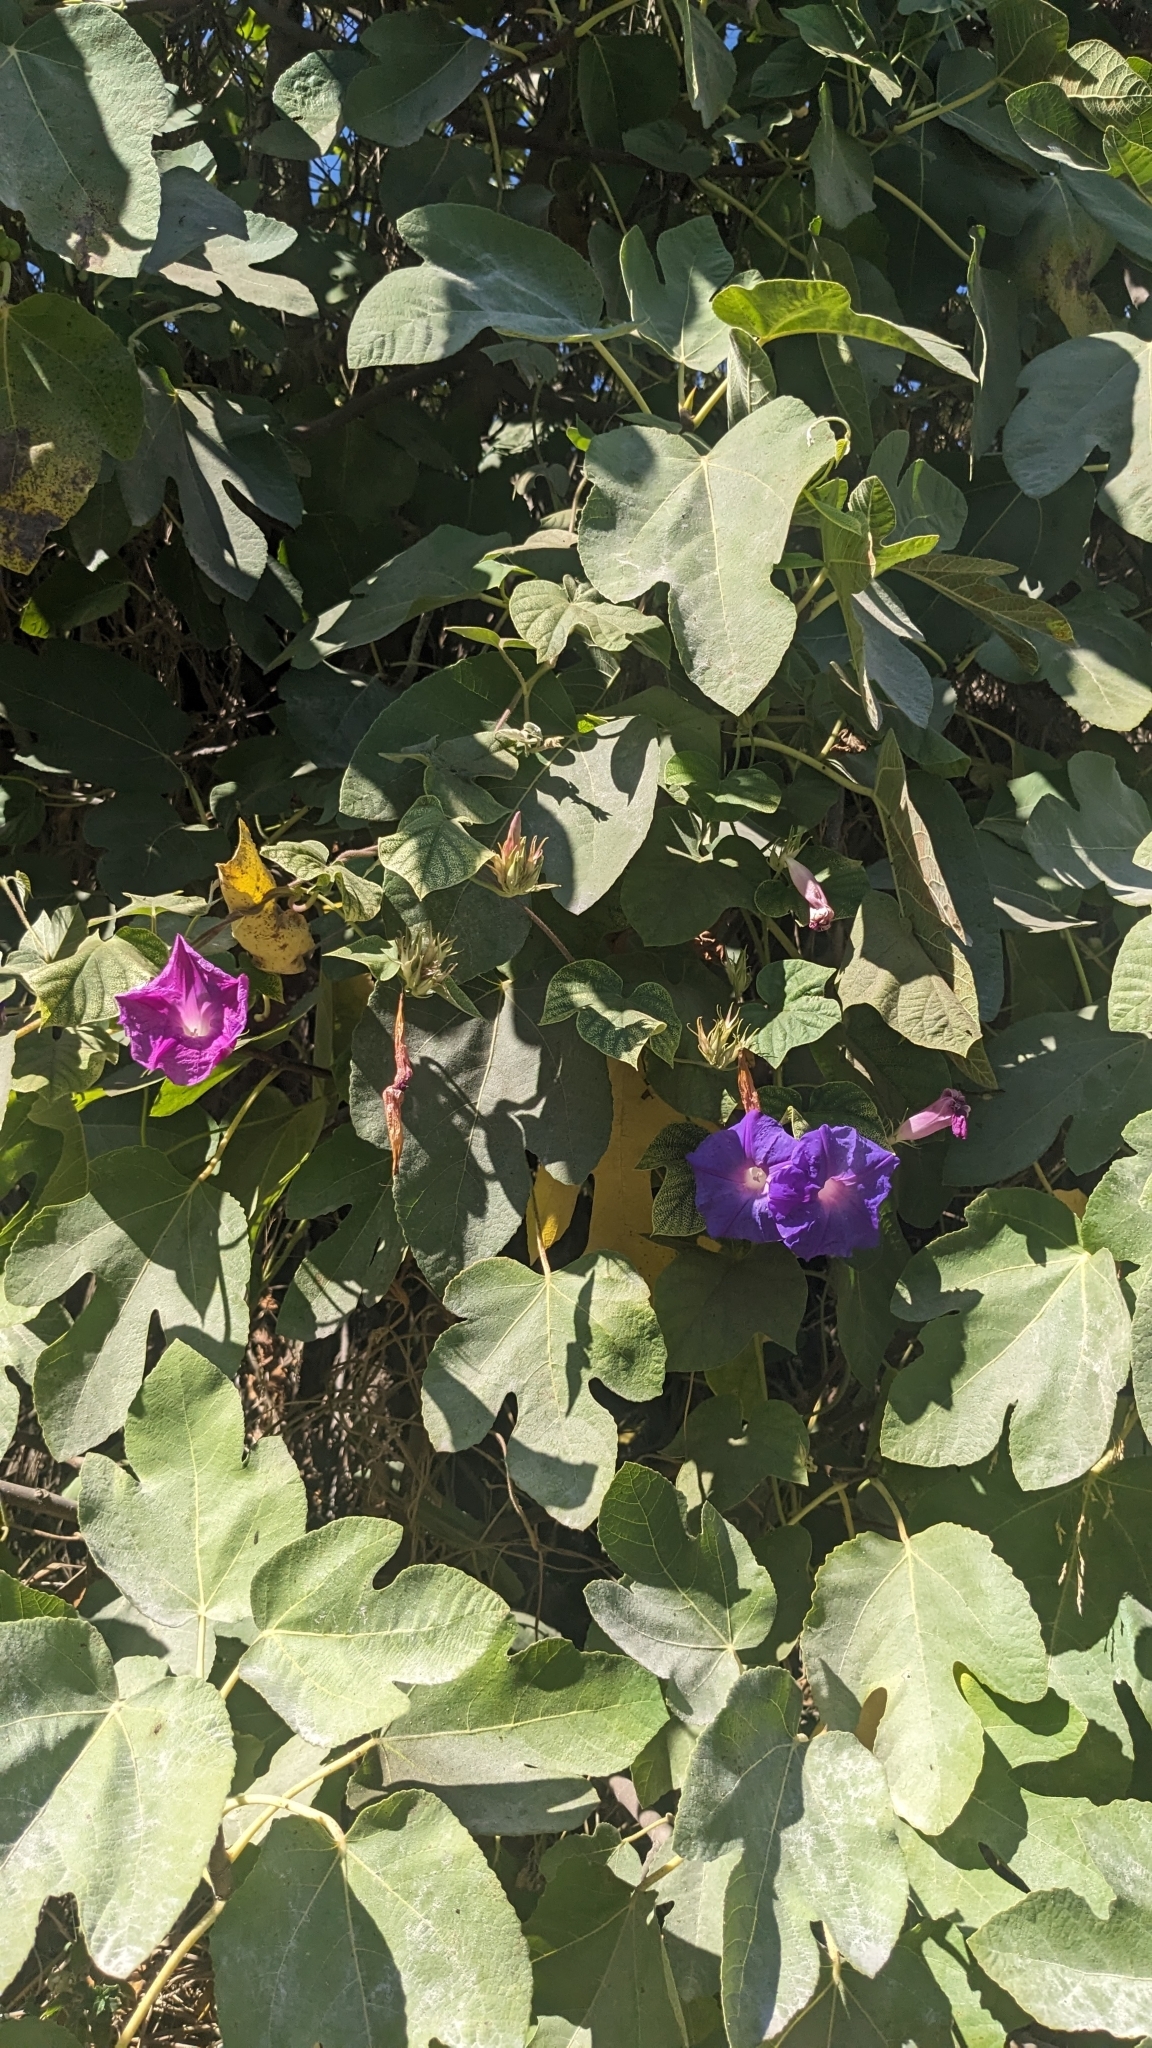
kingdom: Plantae
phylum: Tracheophyta
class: Magnoliopsida
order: Solanales
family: Convolvulaceae
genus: Ipomoea
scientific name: Ipomoea indica
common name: Blue dawnflower
